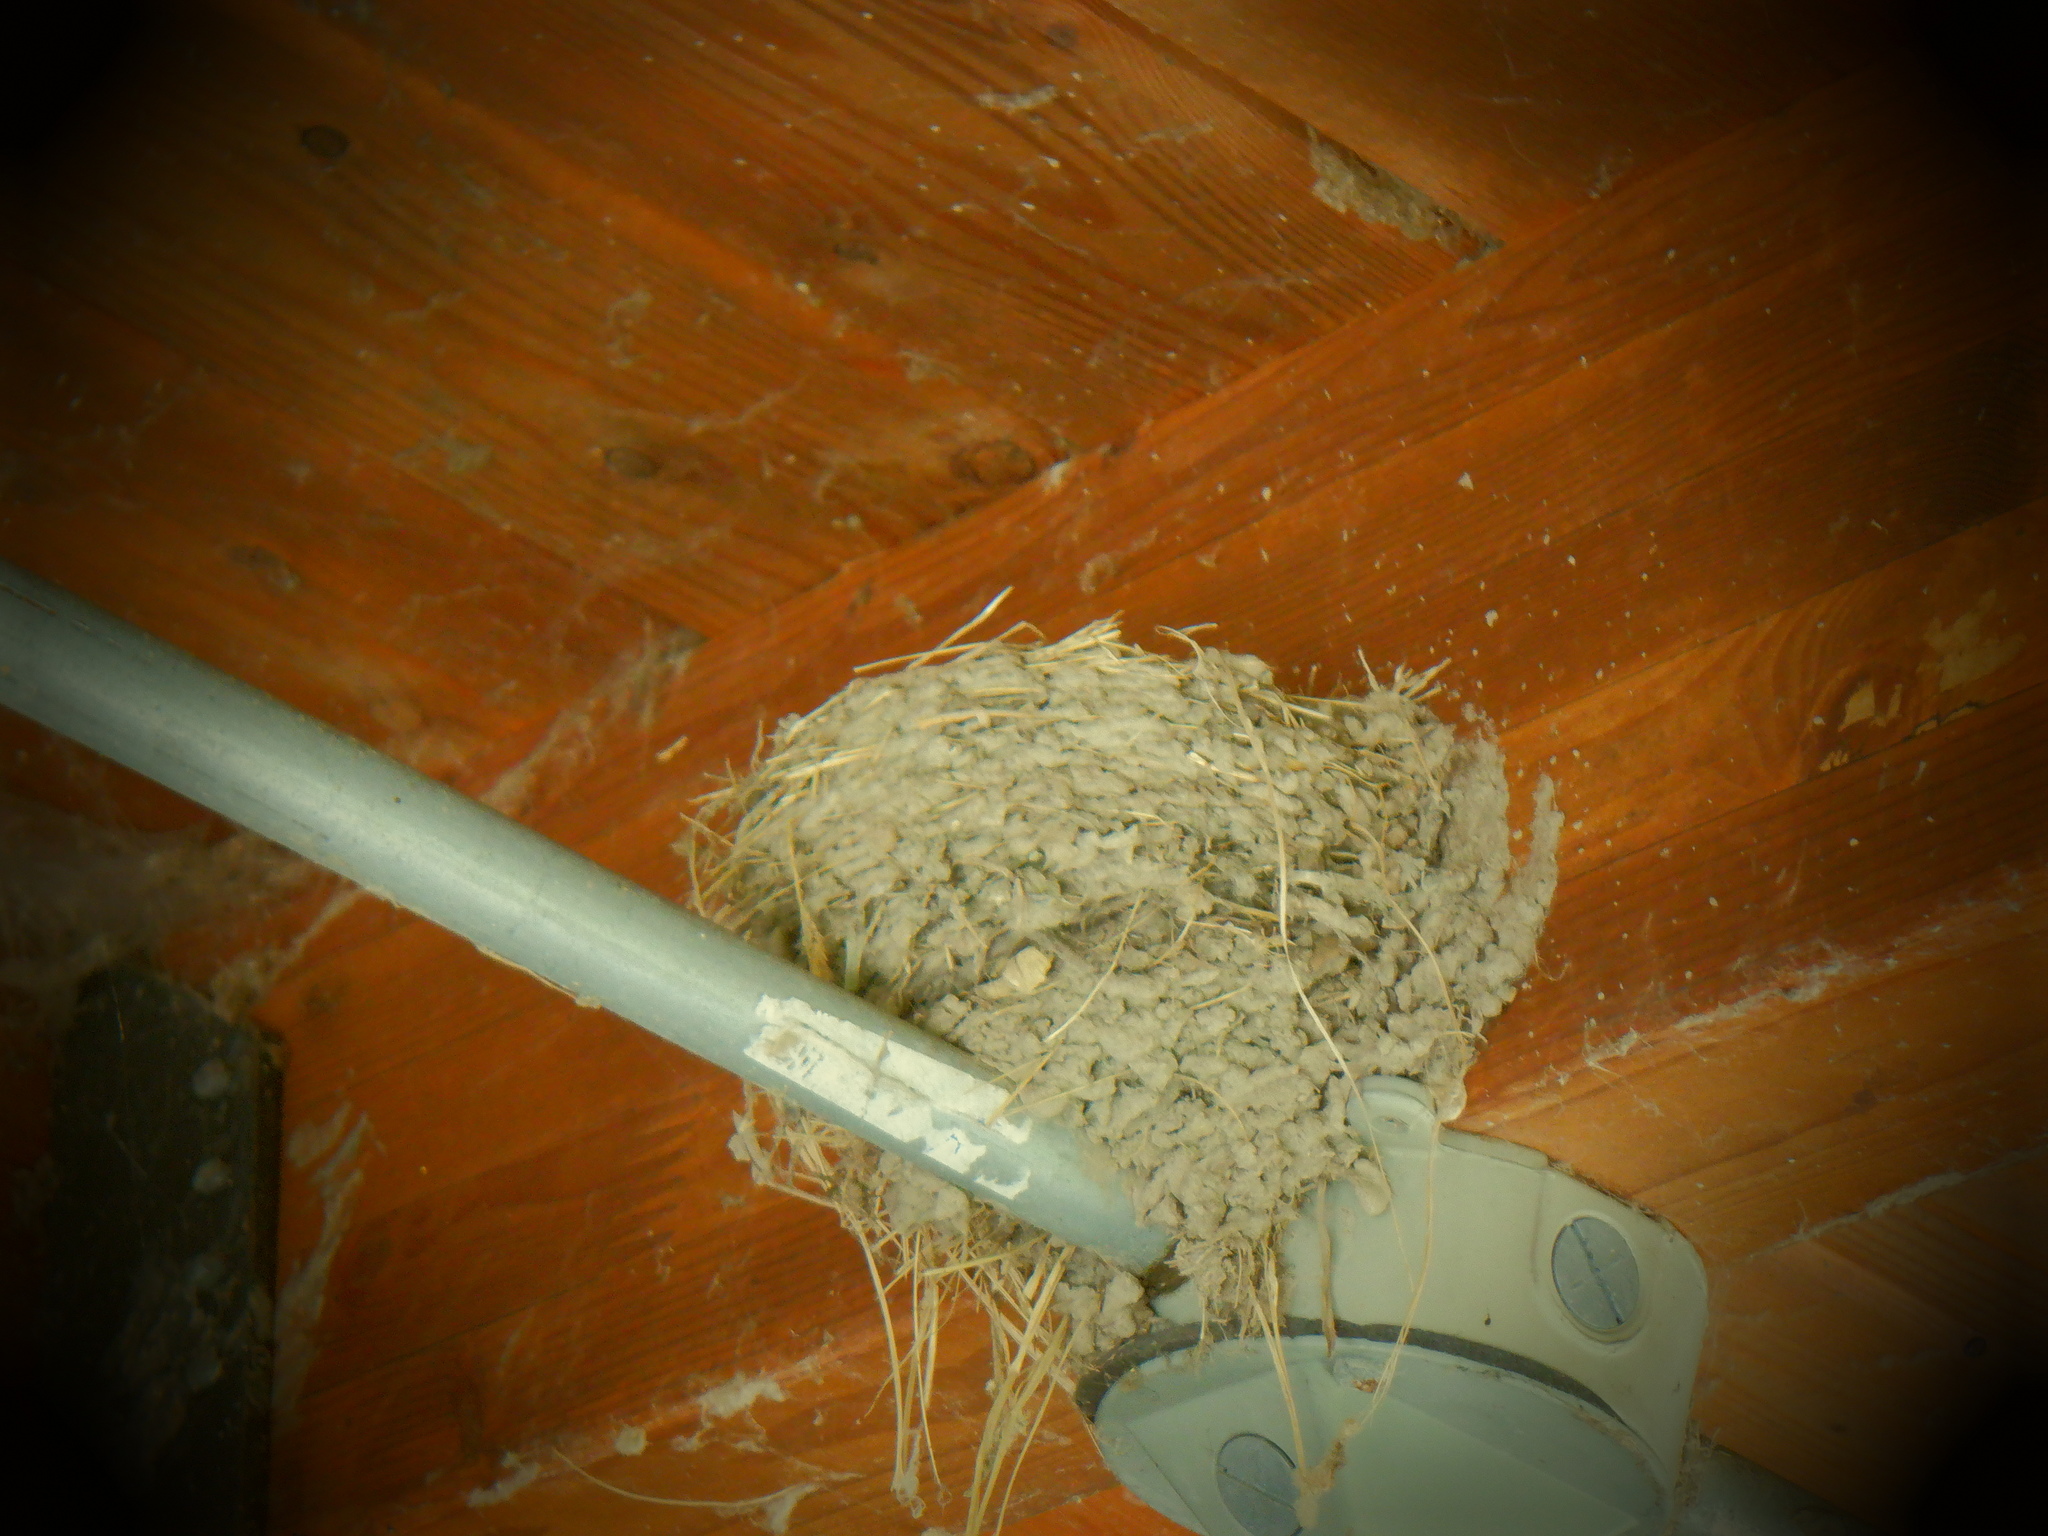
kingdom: Animalia
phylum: Chordata
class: Aves
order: Passeriformes
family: Hirundinidae
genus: Hirundo
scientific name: Hirundo rustica
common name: Barn swallow
